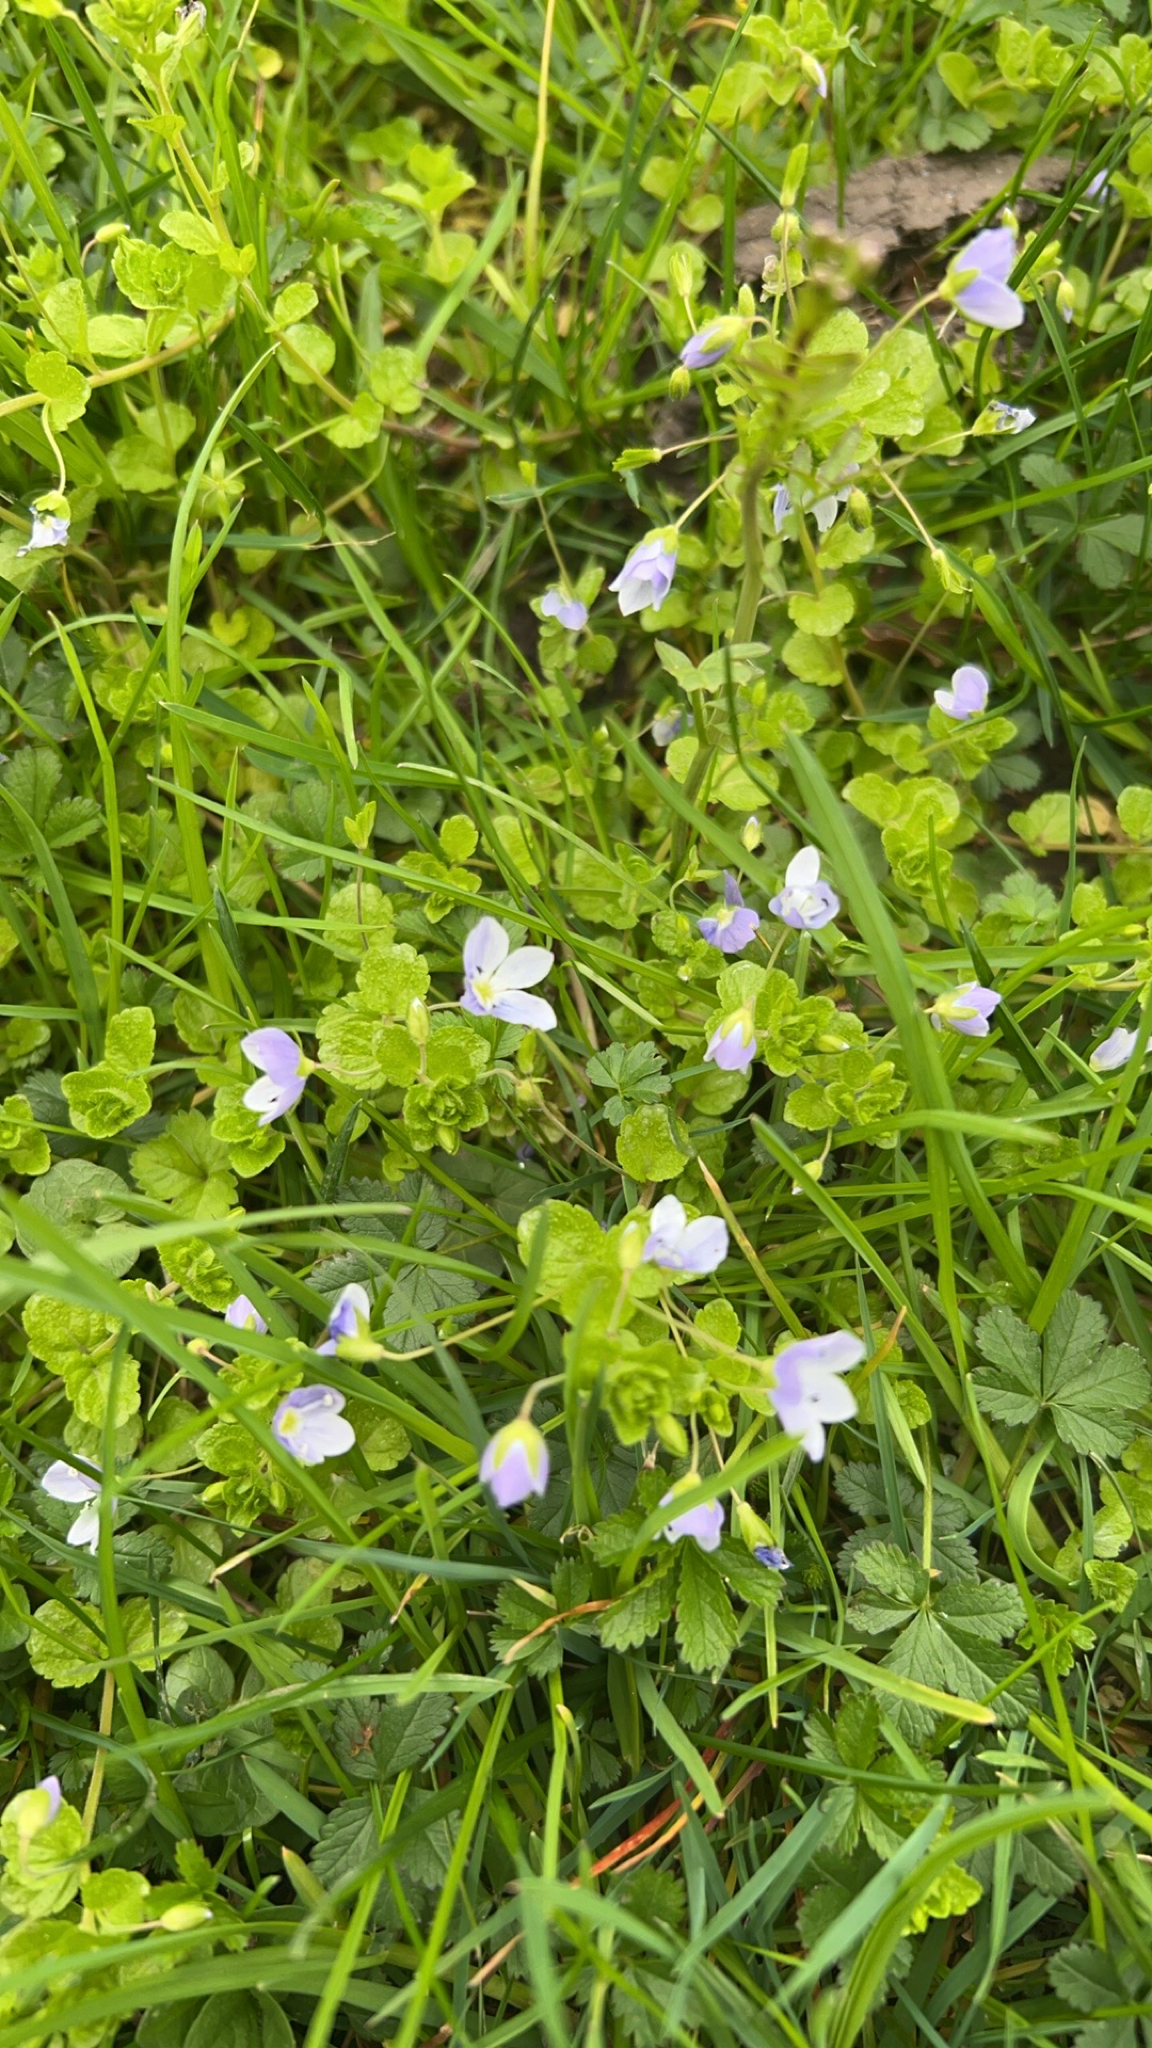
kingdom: Plantae
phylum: Tracheophyta
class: Magnoliopsida
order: Lamiales
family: Plantaginaceae
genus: Veronica
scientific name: Veronica filiformis
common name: Slender speedwell
